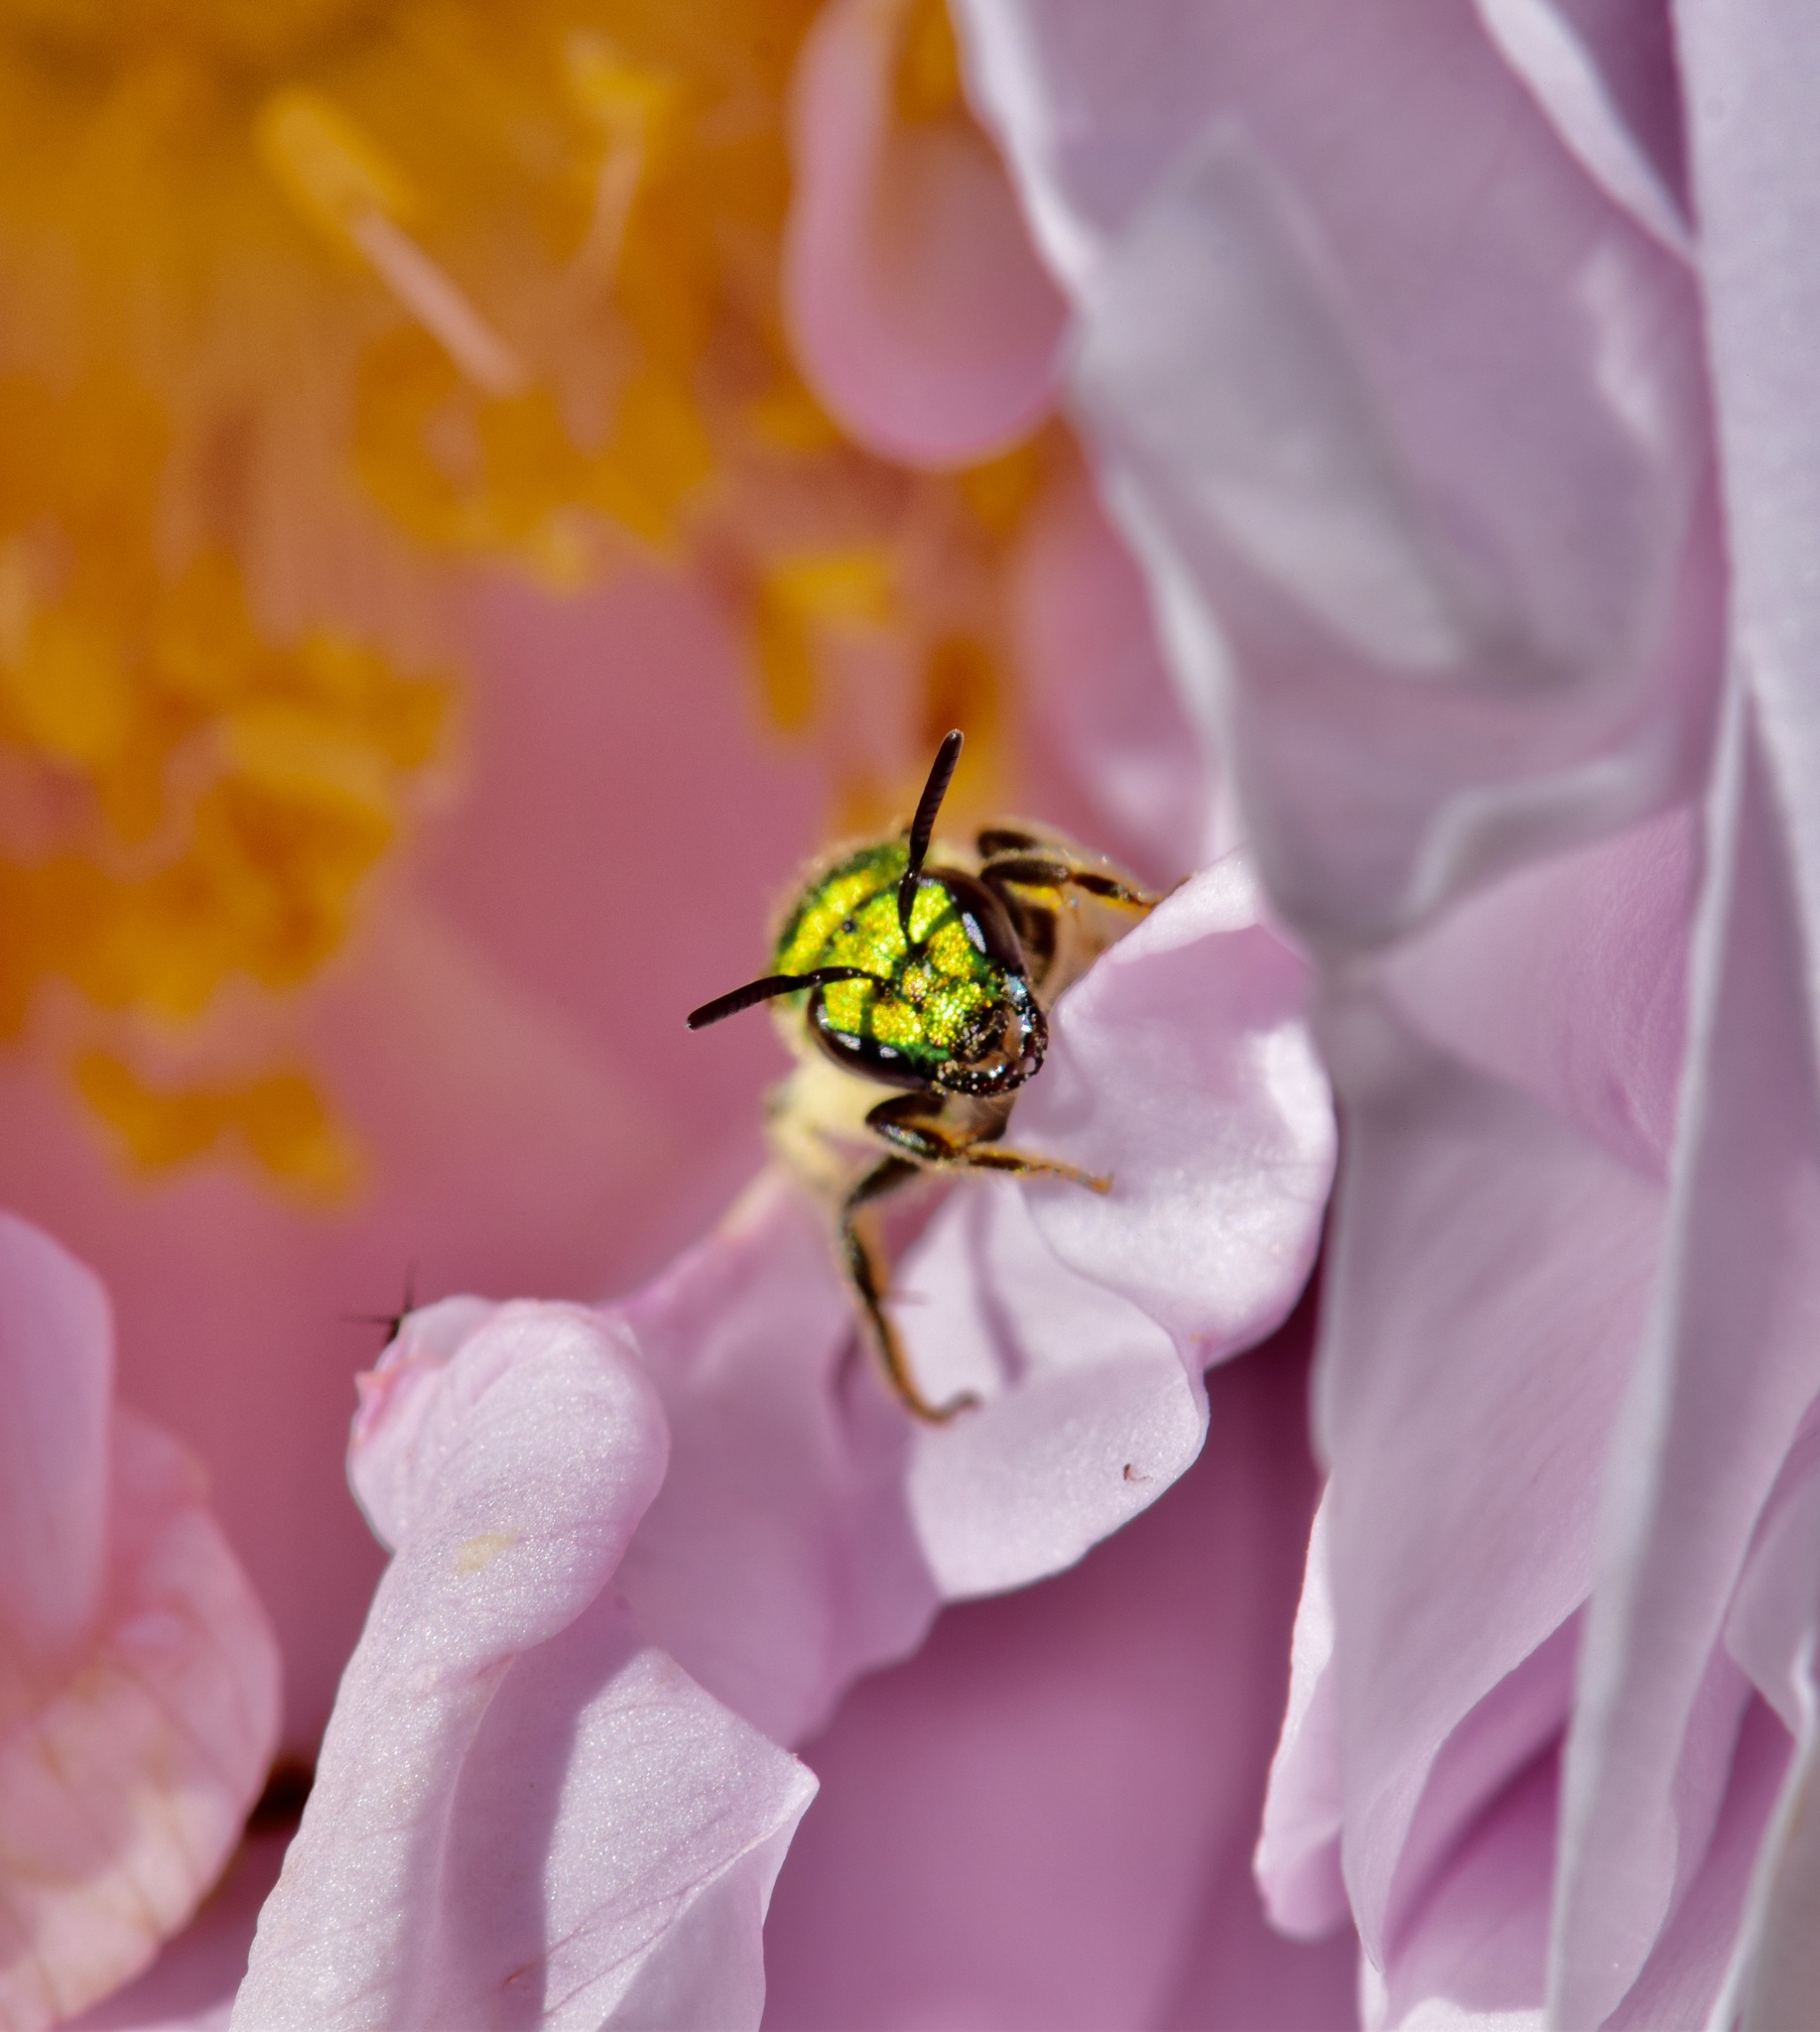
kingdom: Animalia
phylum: Arthropoda
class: Insecta
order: Hymenoptera
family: Halictidae
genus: Augochlora
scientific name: Augochlora pura
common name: Pure green sweat bee
